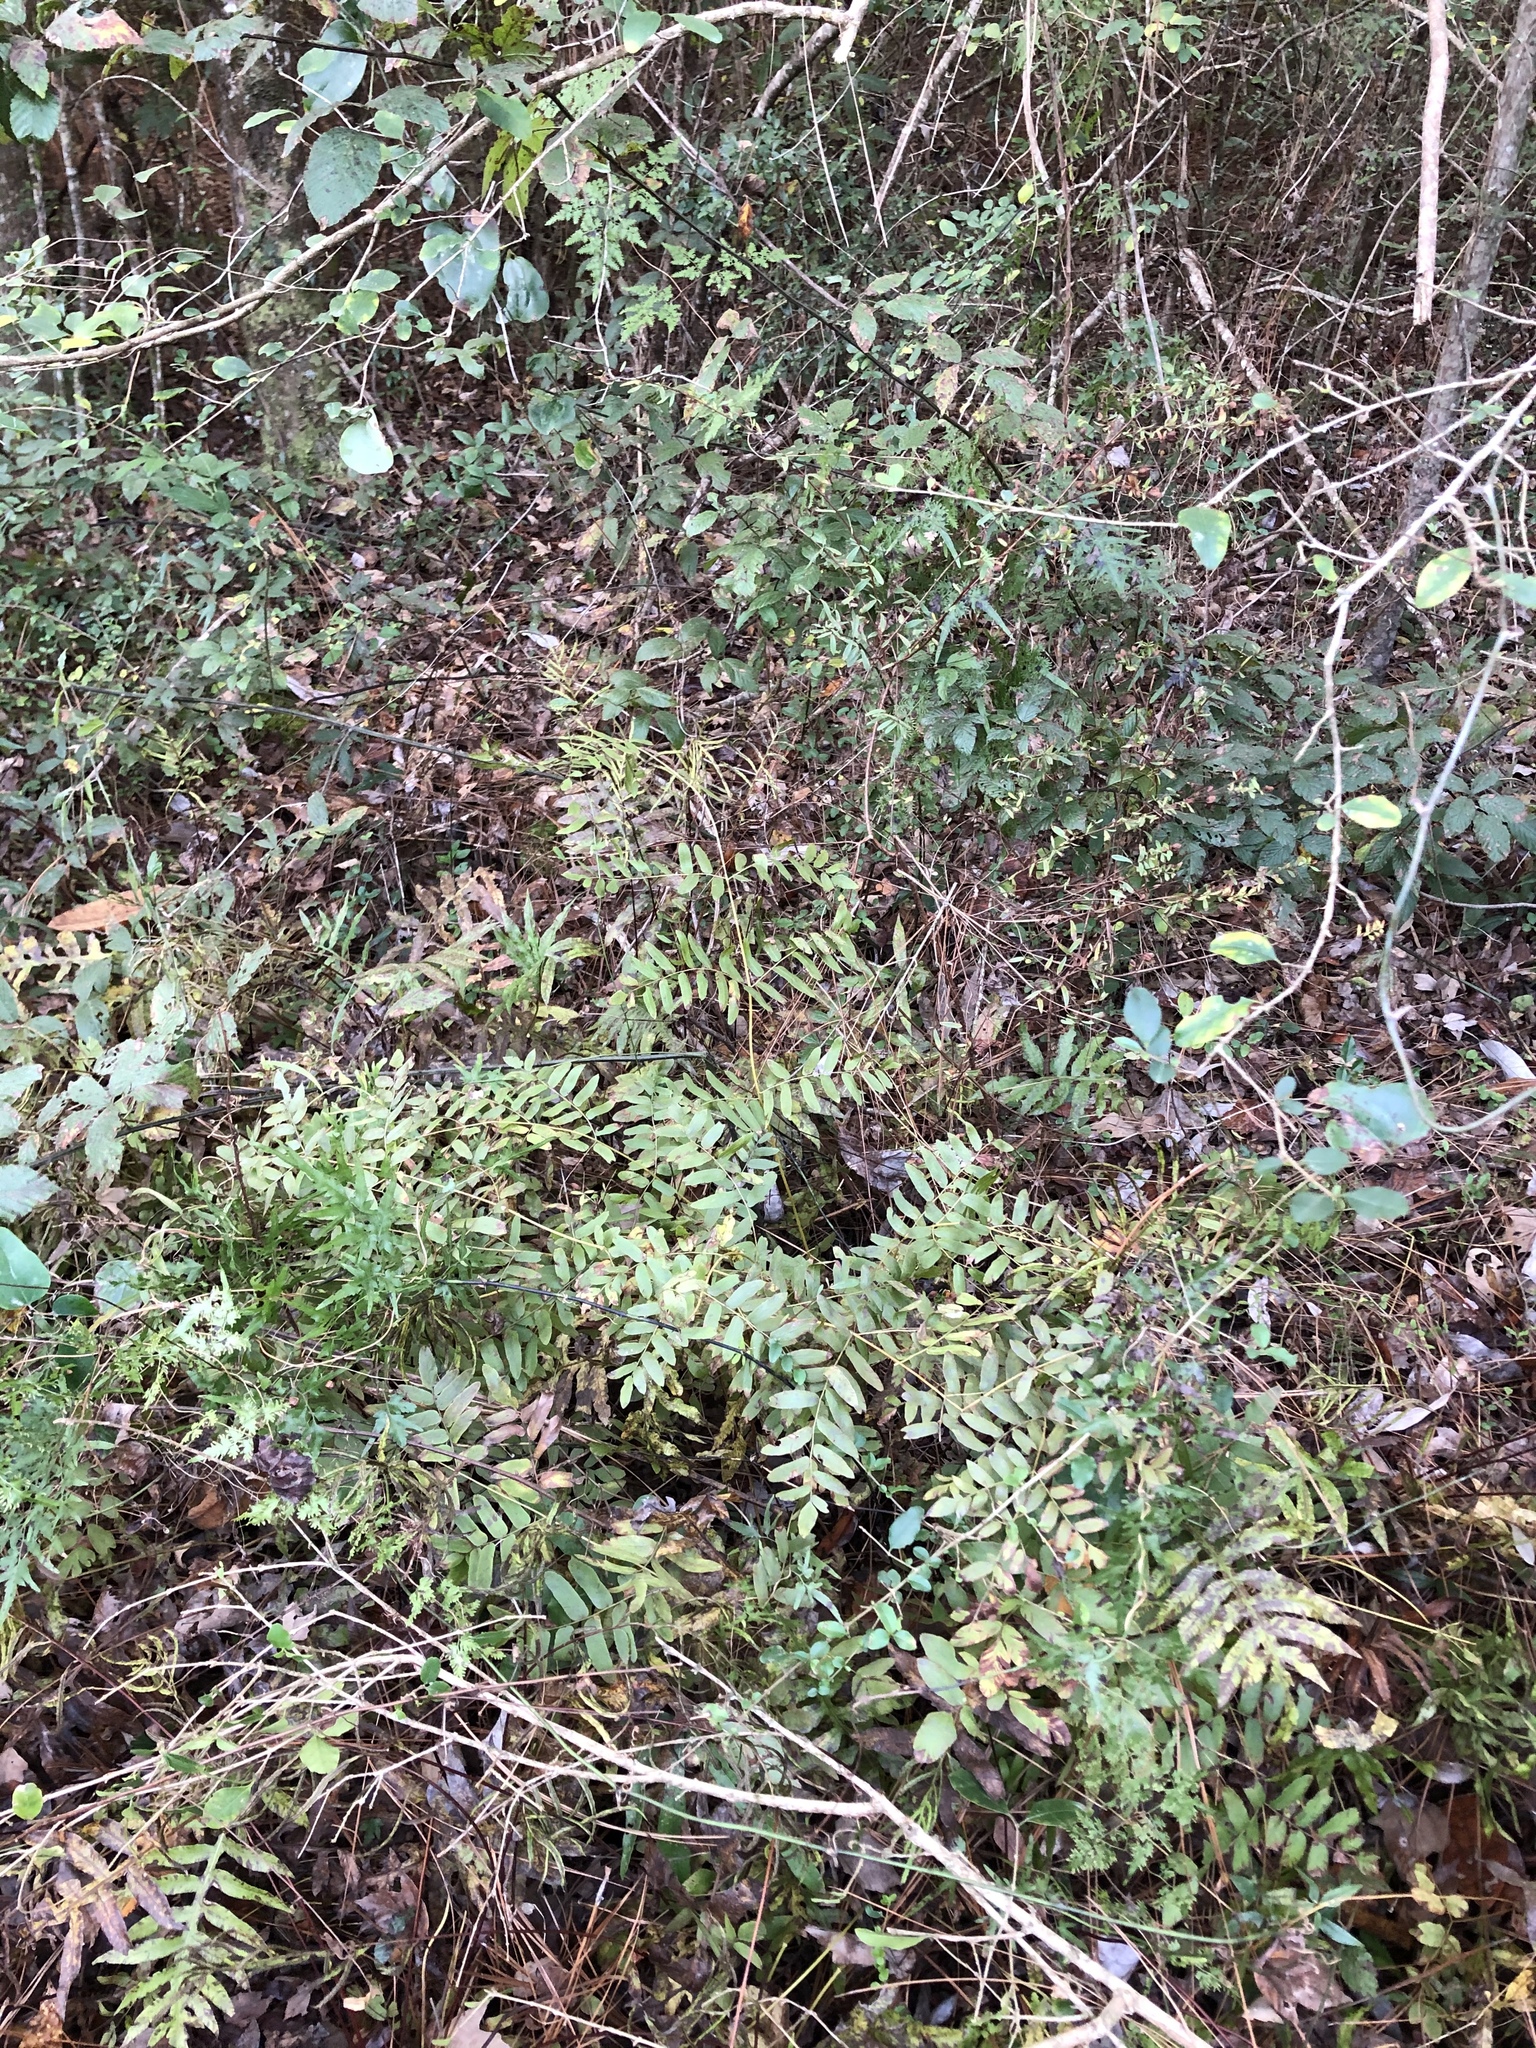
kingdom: Plantae
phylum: Tracheophyta
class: Polypodiopsida
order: Osmundales
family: Osmundaceae
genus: Osmunda
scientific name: Osmunda spectabilis
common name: American royal fern
